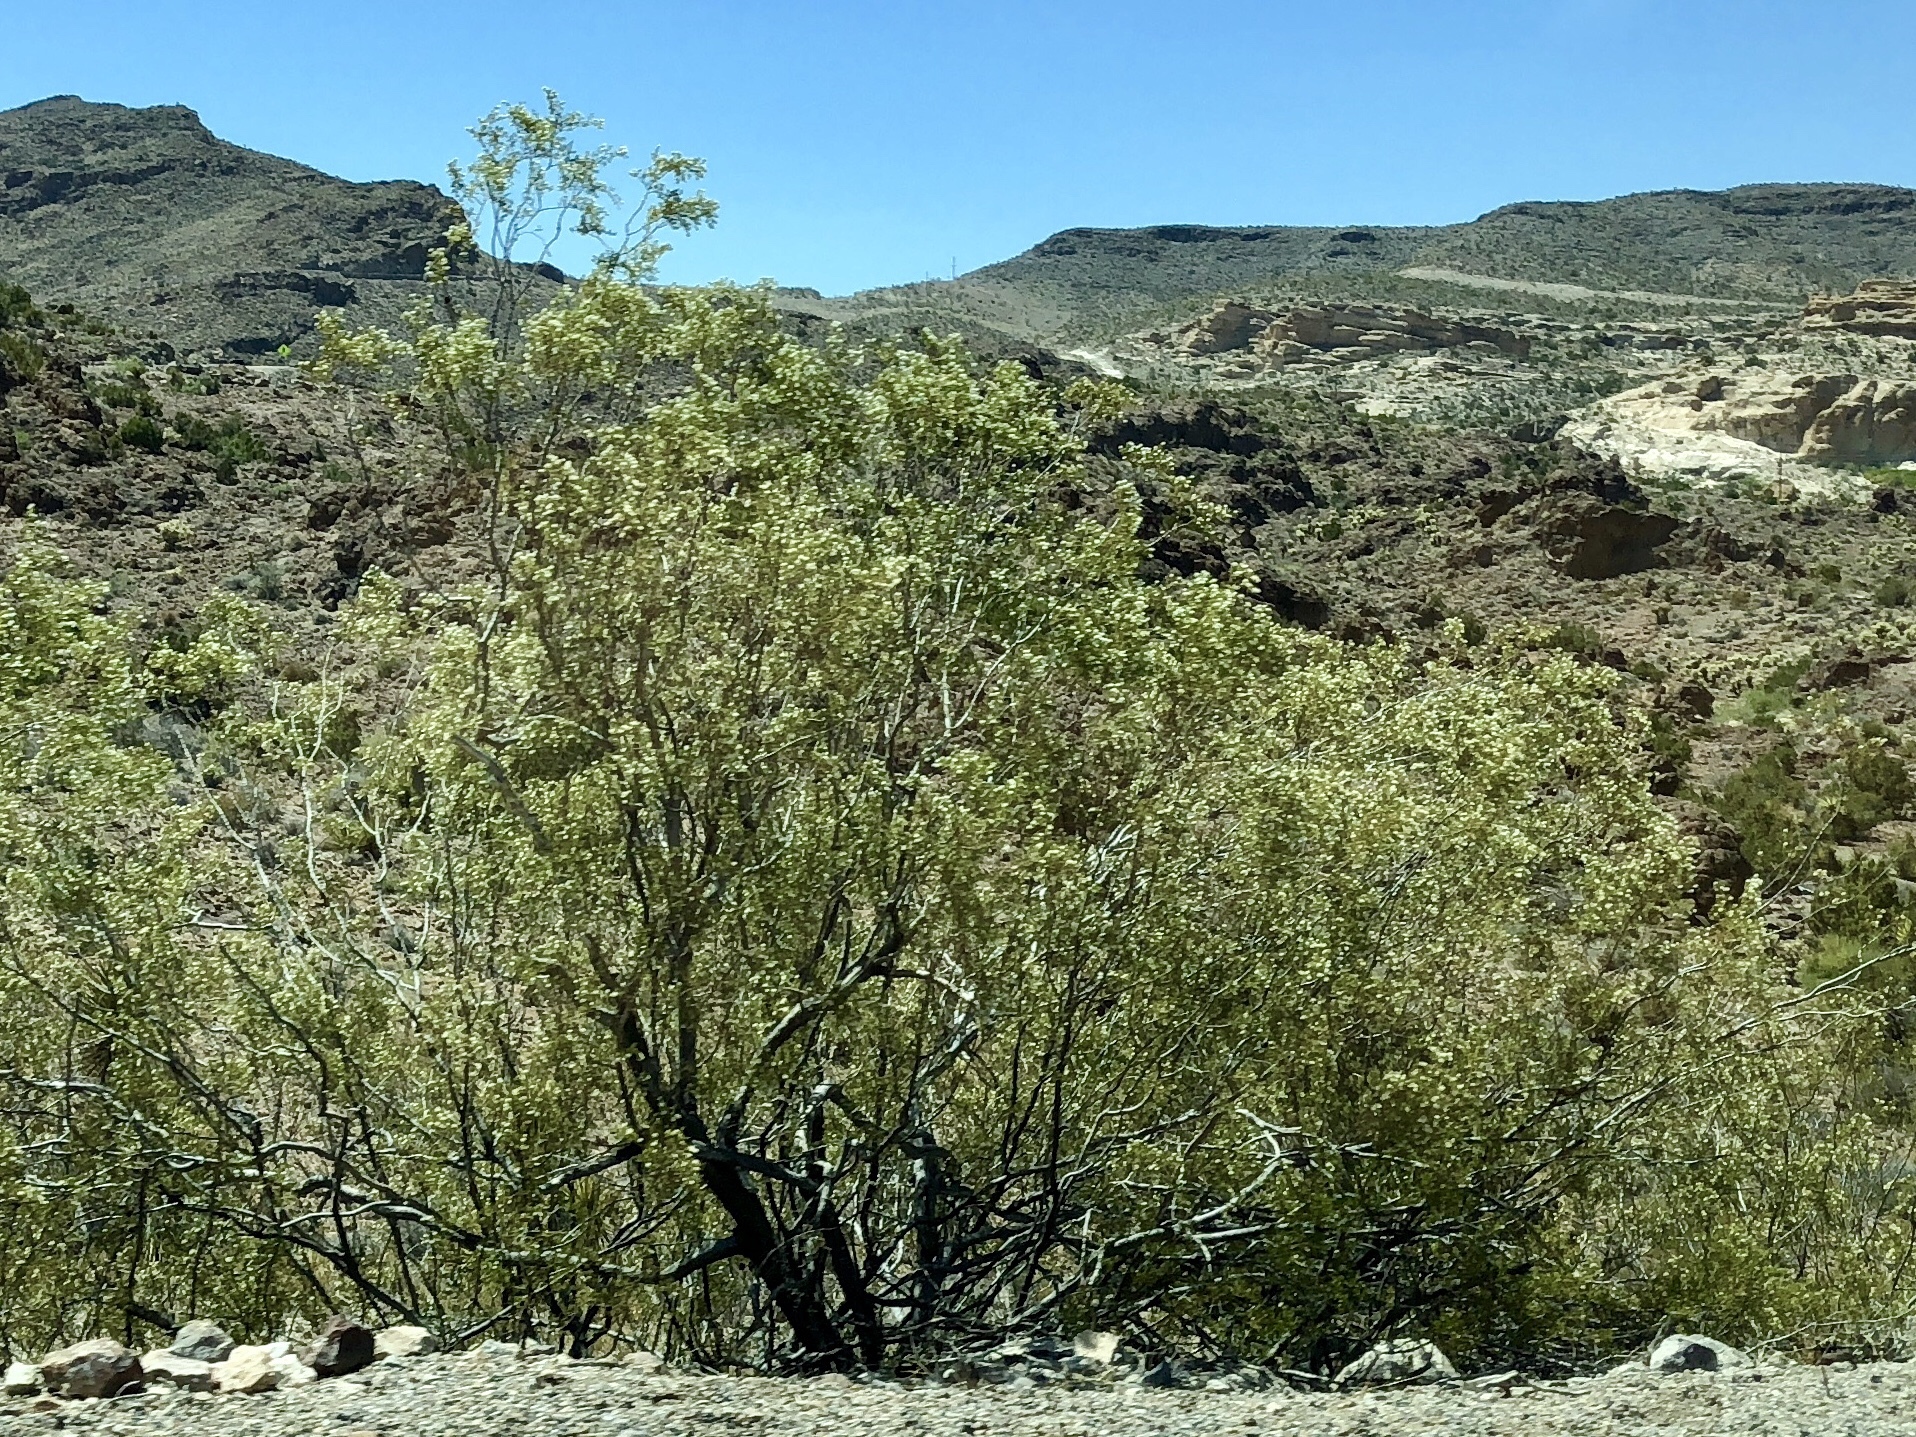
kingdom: Plantae
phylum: Tracheophyta
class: Magnoliopsida
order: Zygophyllales
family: Zygophyllaceae
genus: Larrea
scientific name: Larrea tridentata
